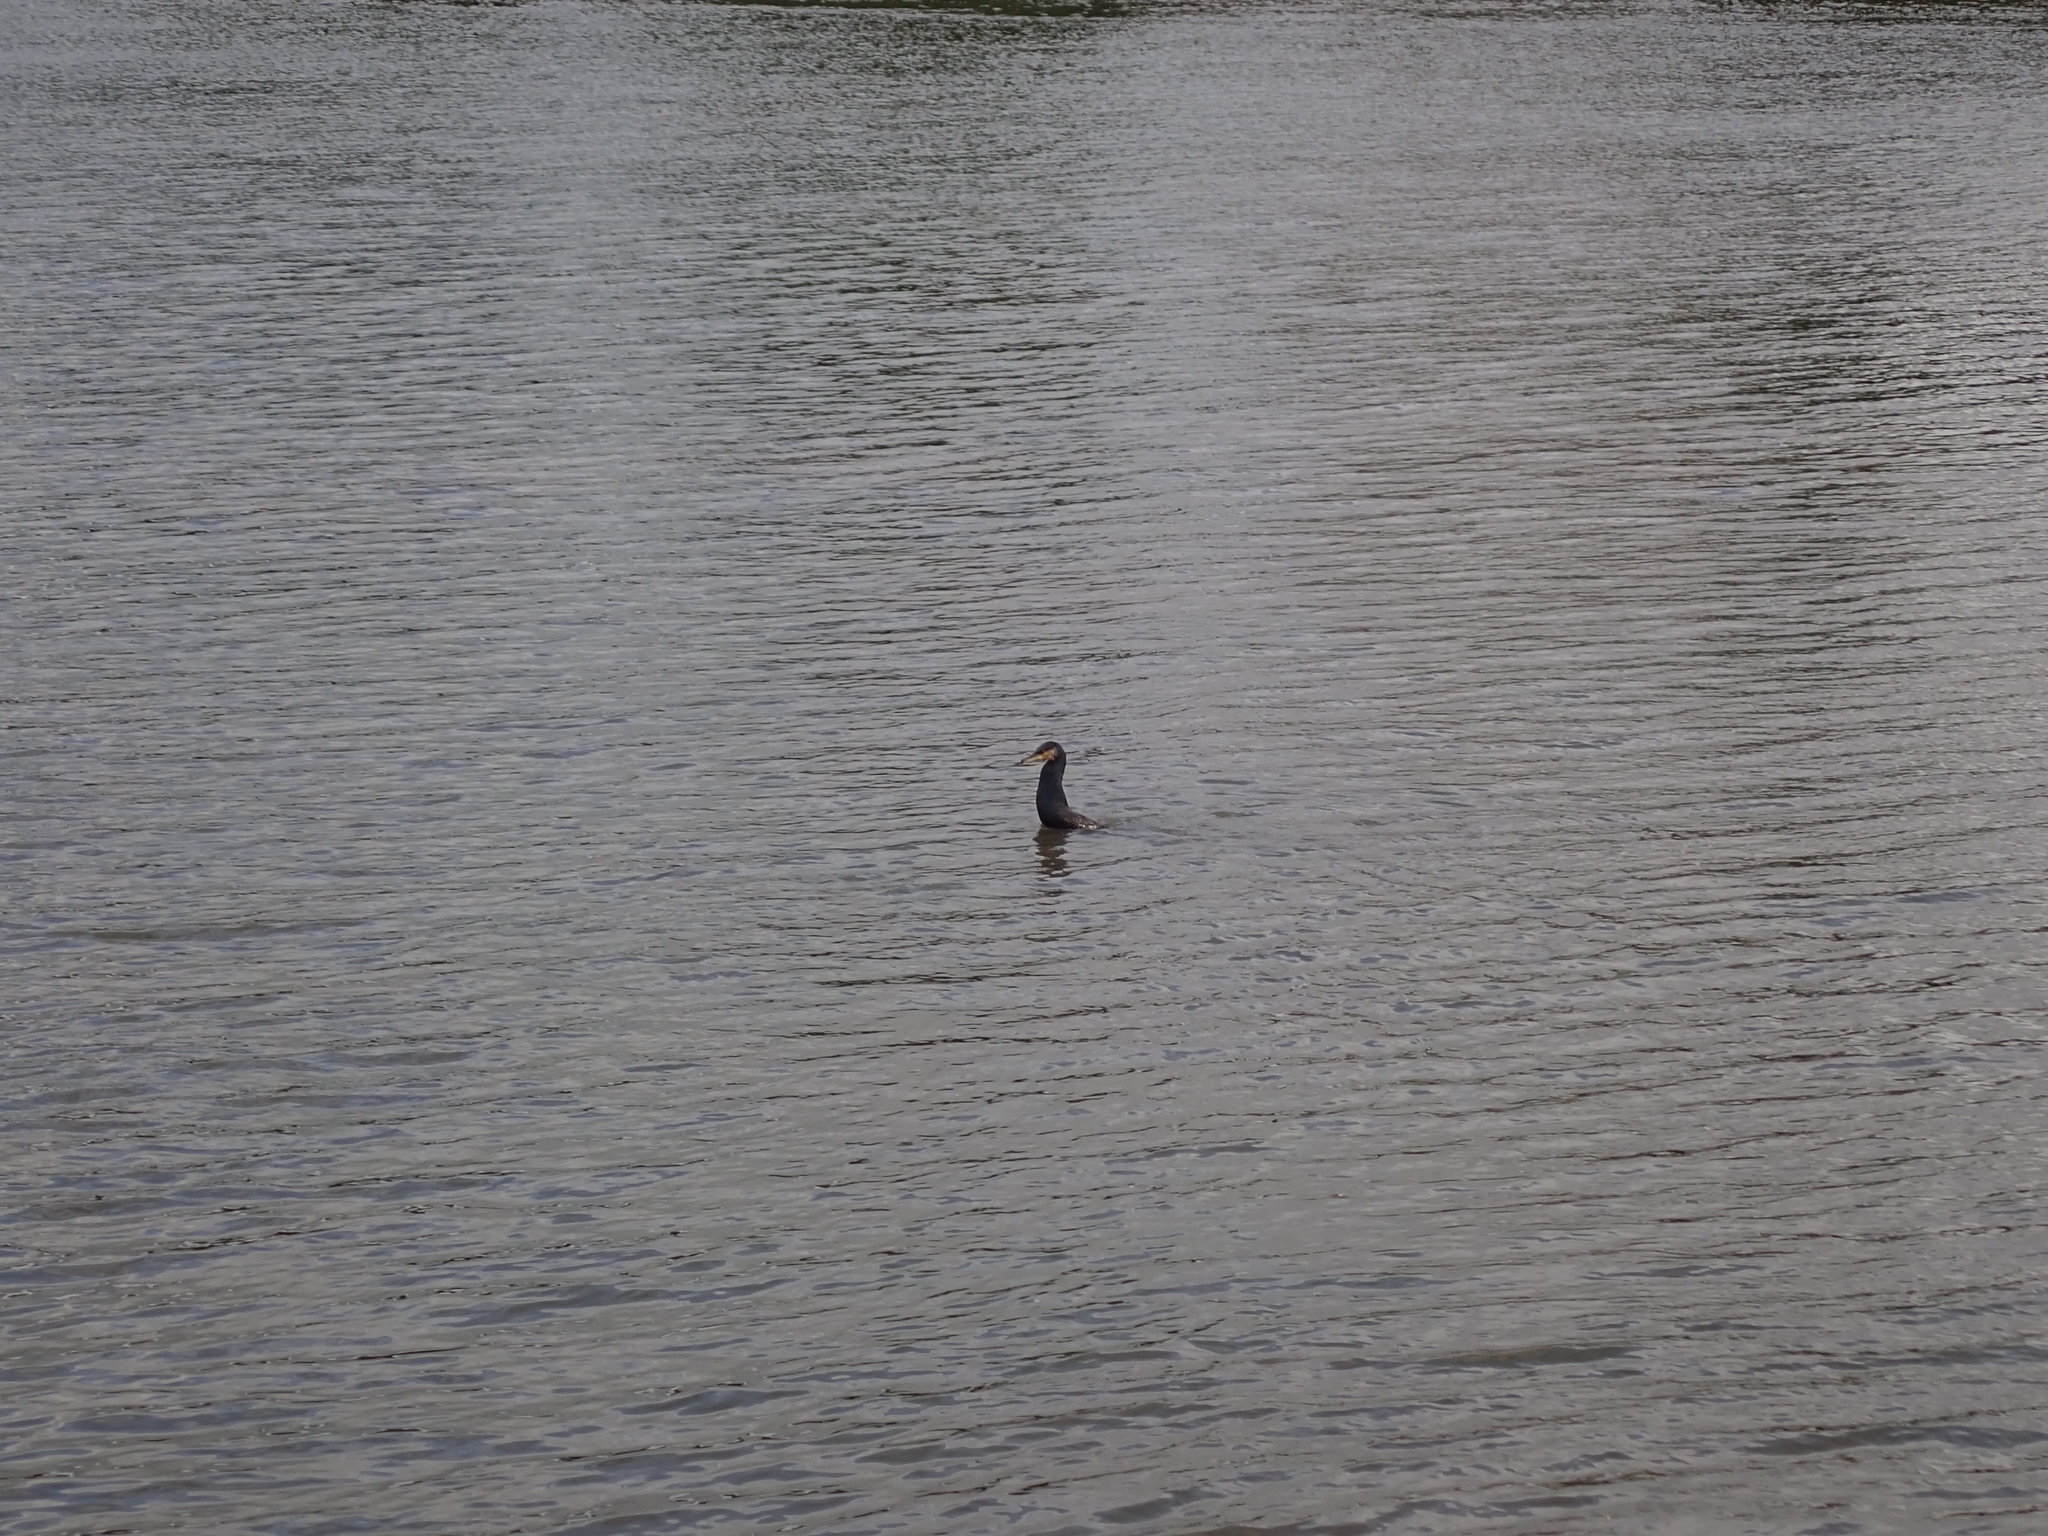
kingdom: Animalia
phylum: Chordata
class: Aves
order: Suliformes
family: Phalacrocoracidae
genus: Phalacrocorax
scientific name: Phalacrocorax carbo
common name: Great cormorant
